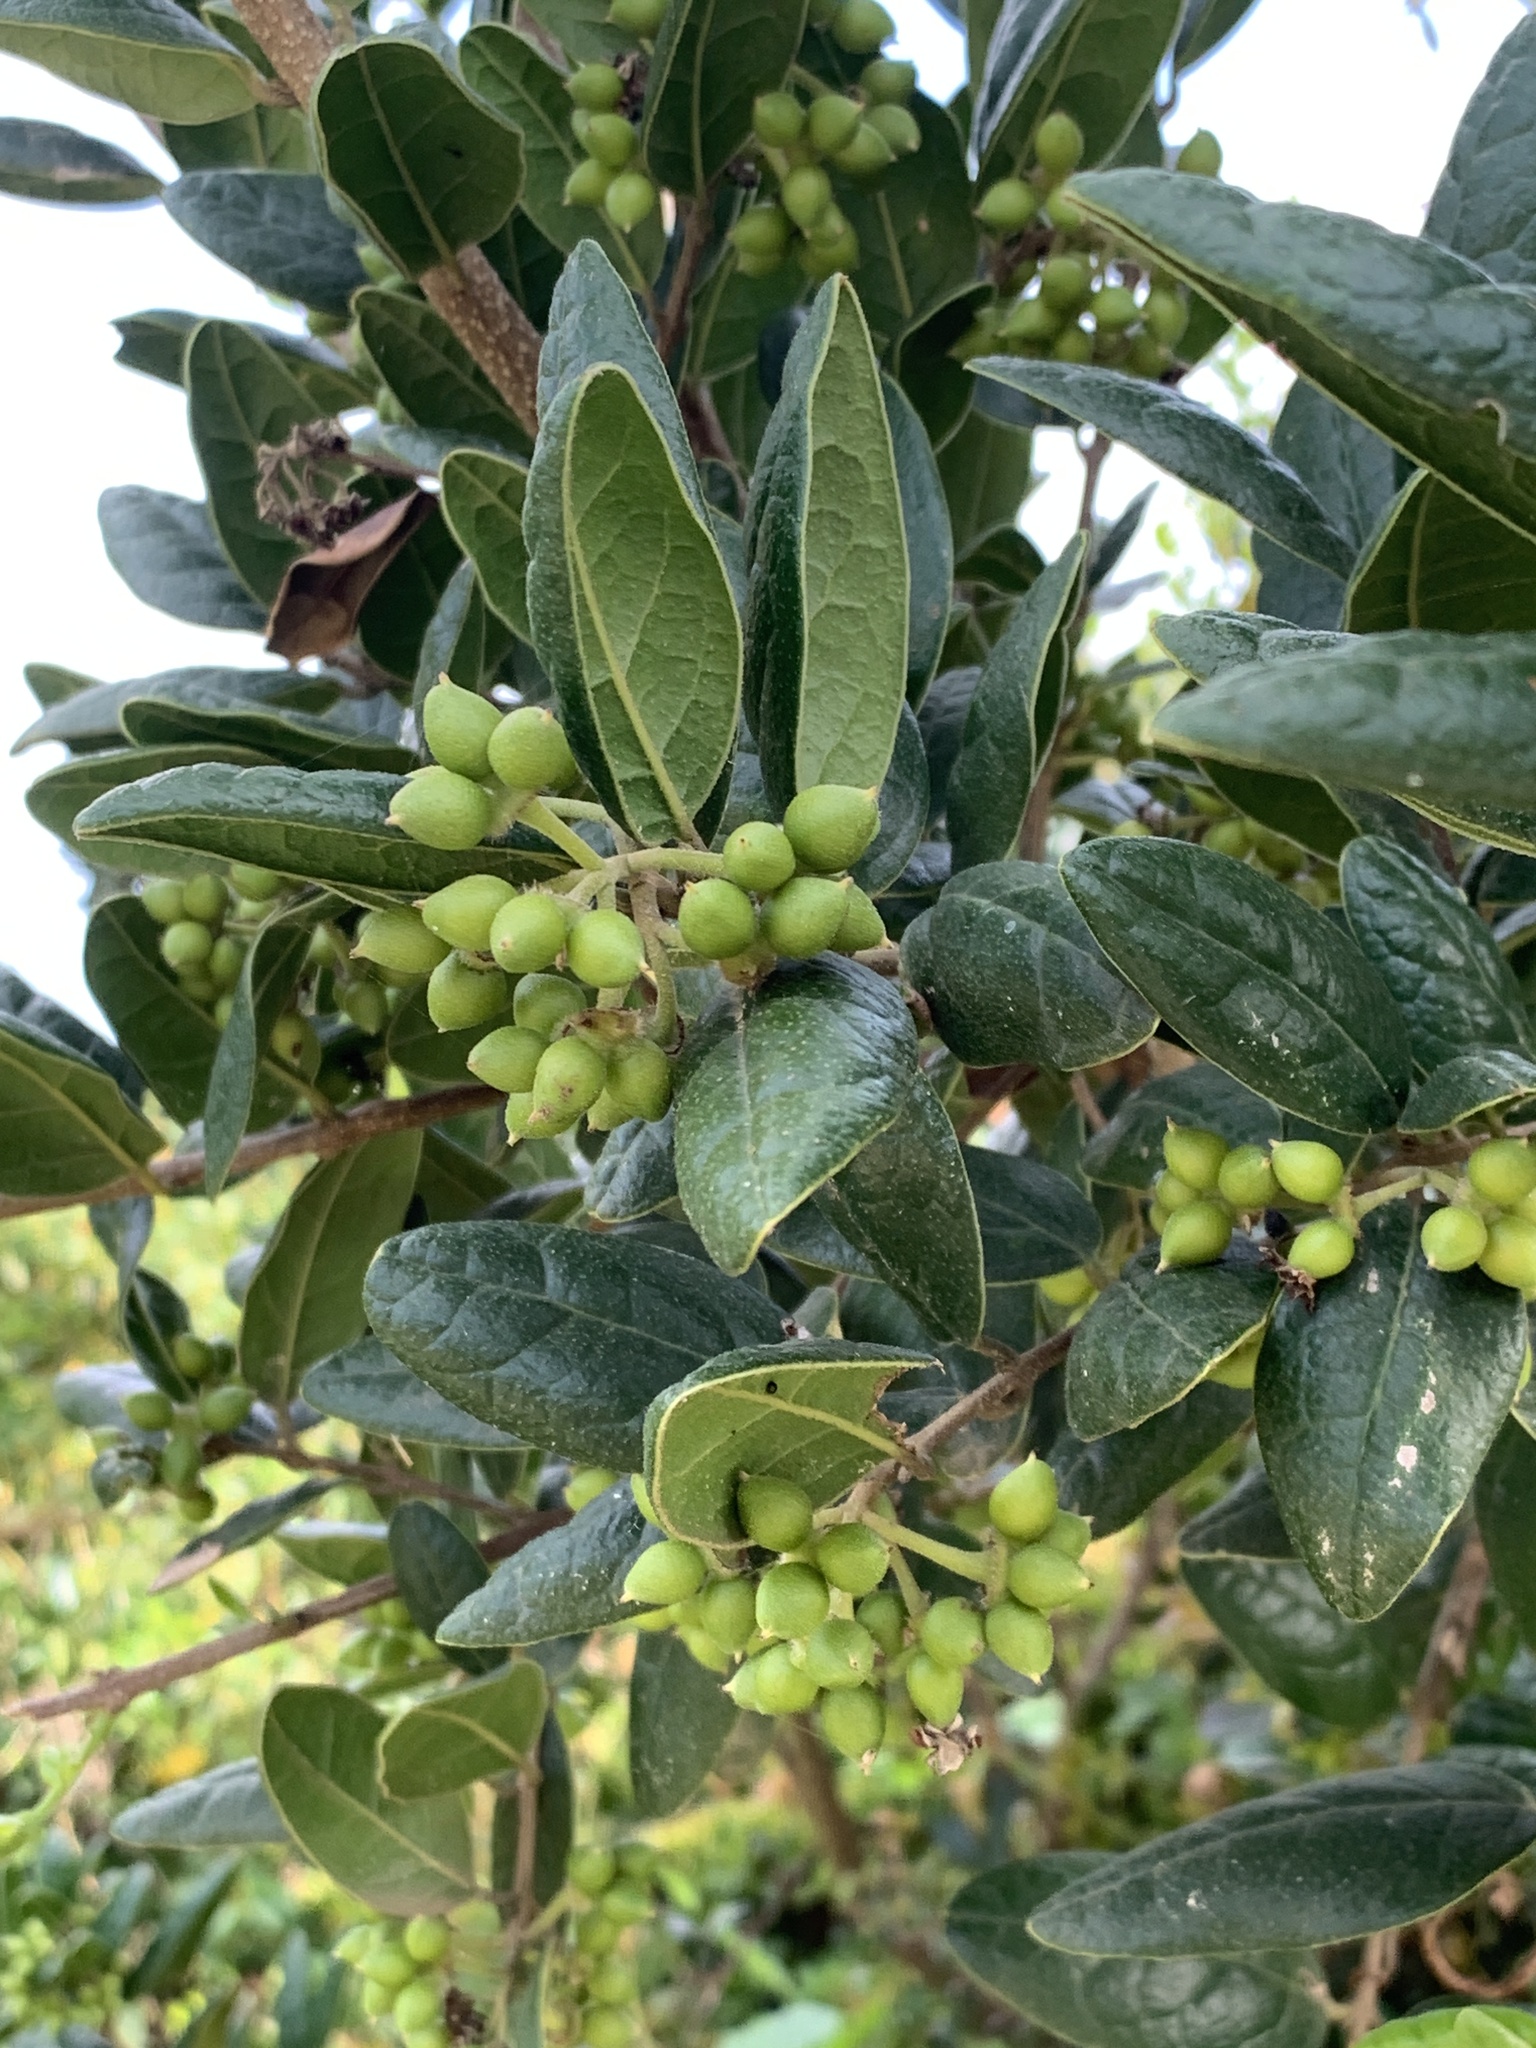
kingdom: Plantae
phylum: Tracheophyta
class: Magnoliopsida
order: Laurales
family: Monimiaceae
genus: Peumus
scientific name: Peumus boldus
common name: Boldo
